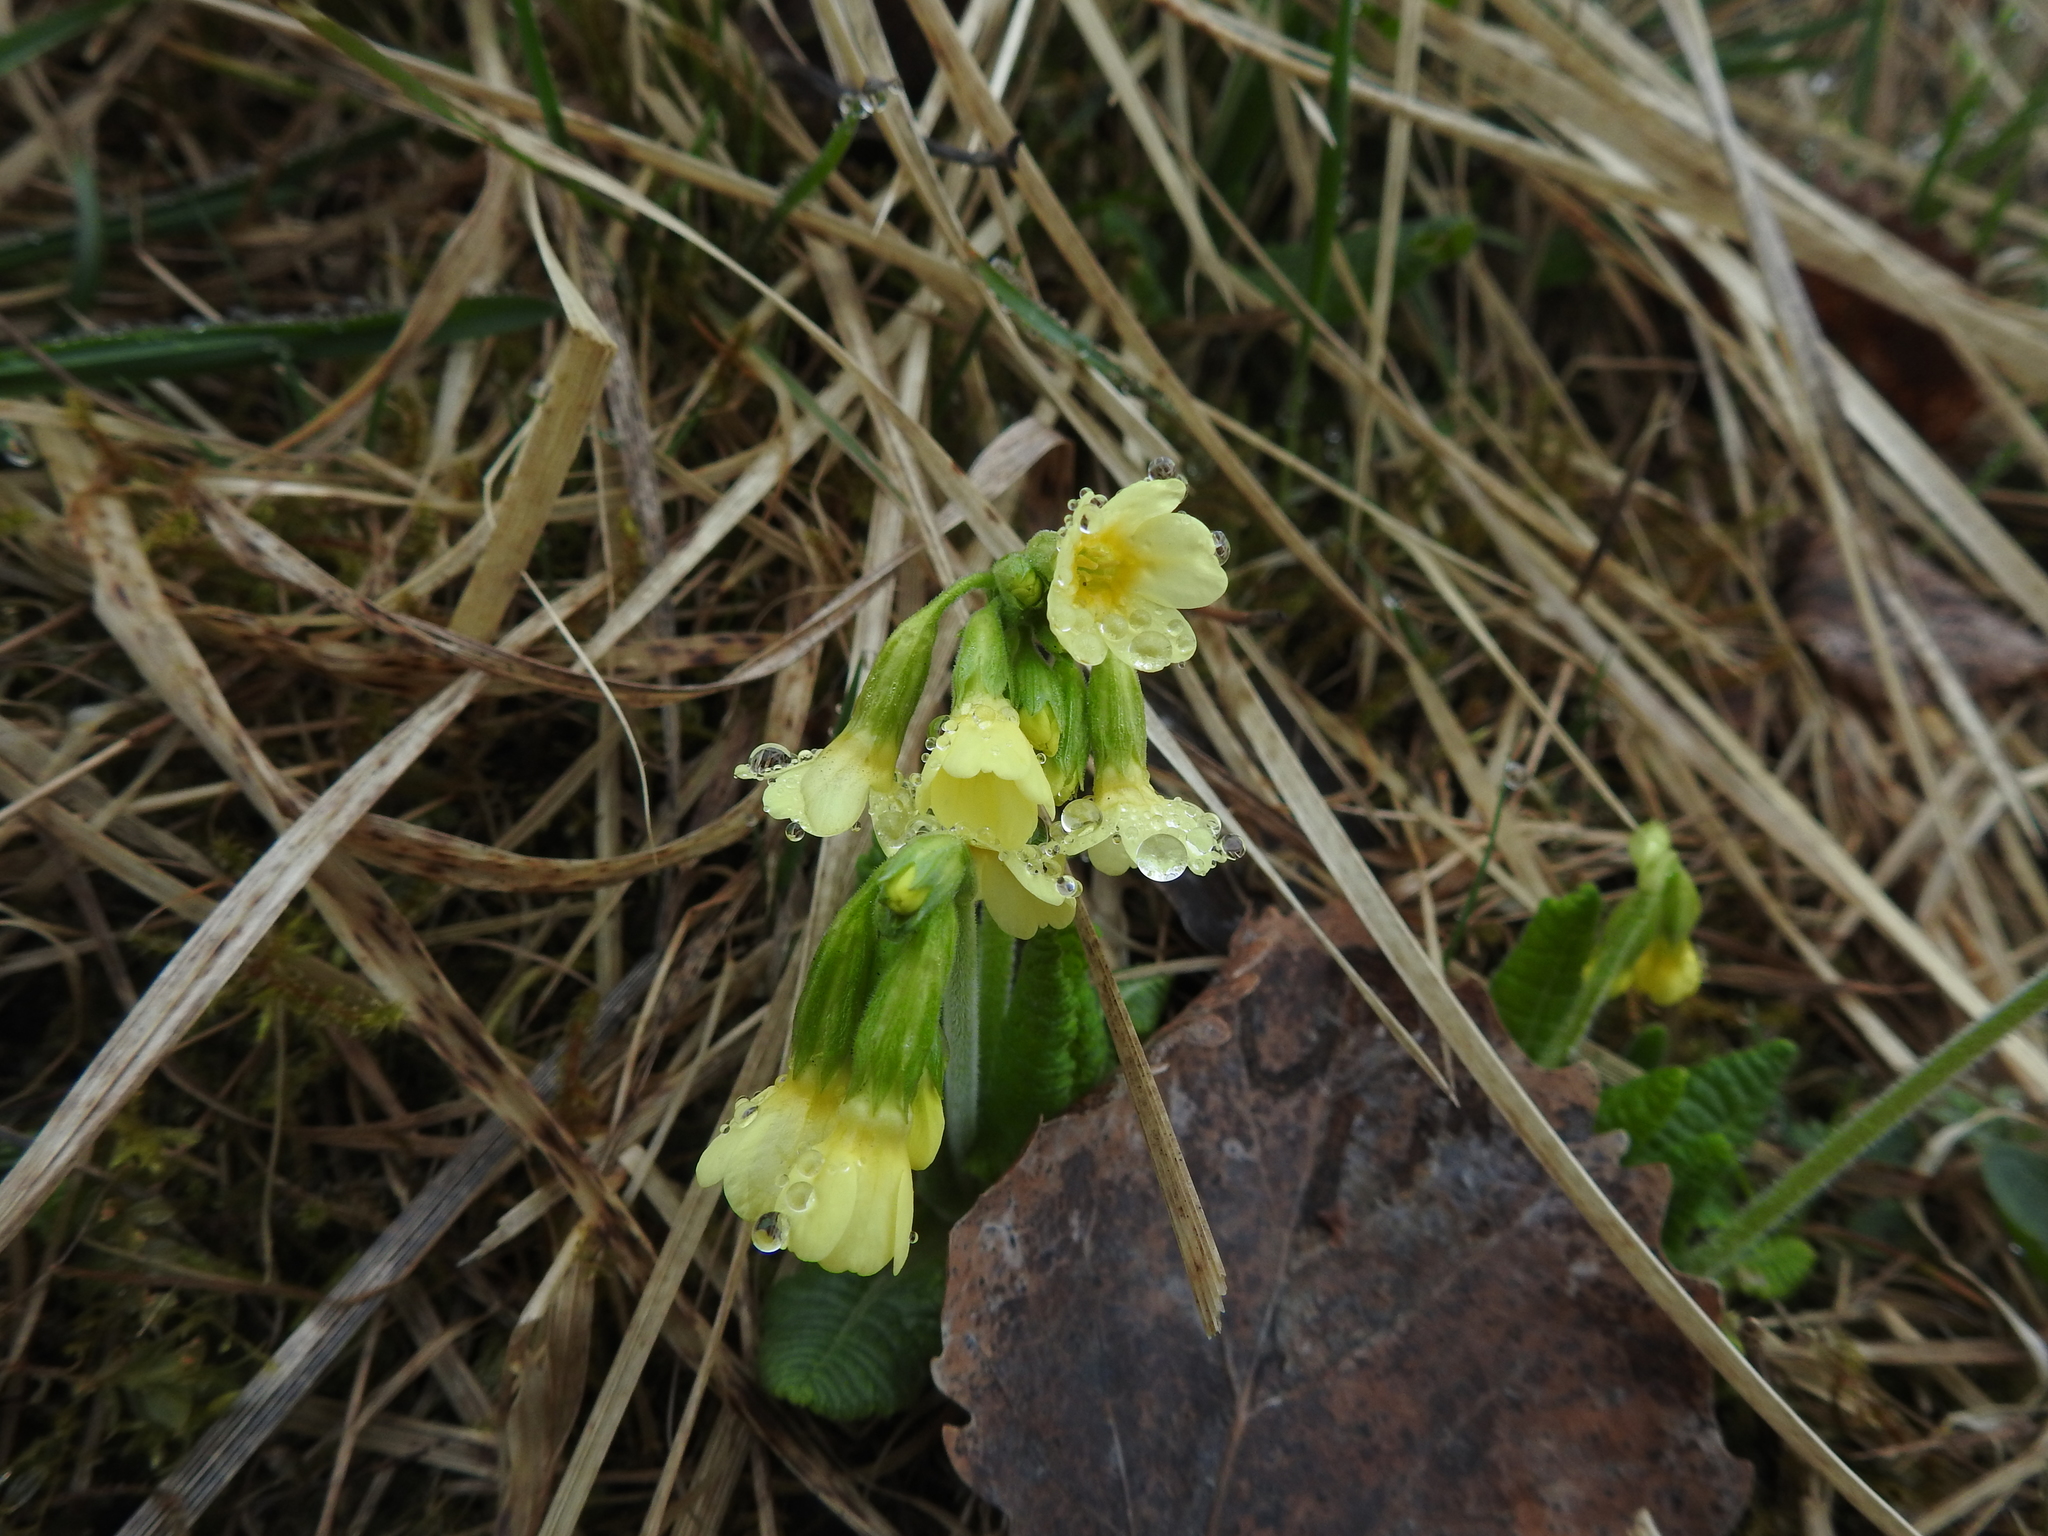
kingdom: Plantae
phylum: Tracheophyta
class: Magnoliopsida
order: Ericales
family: Primulaceae
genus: Primula
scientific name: Primula elatior
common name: Oxlip
